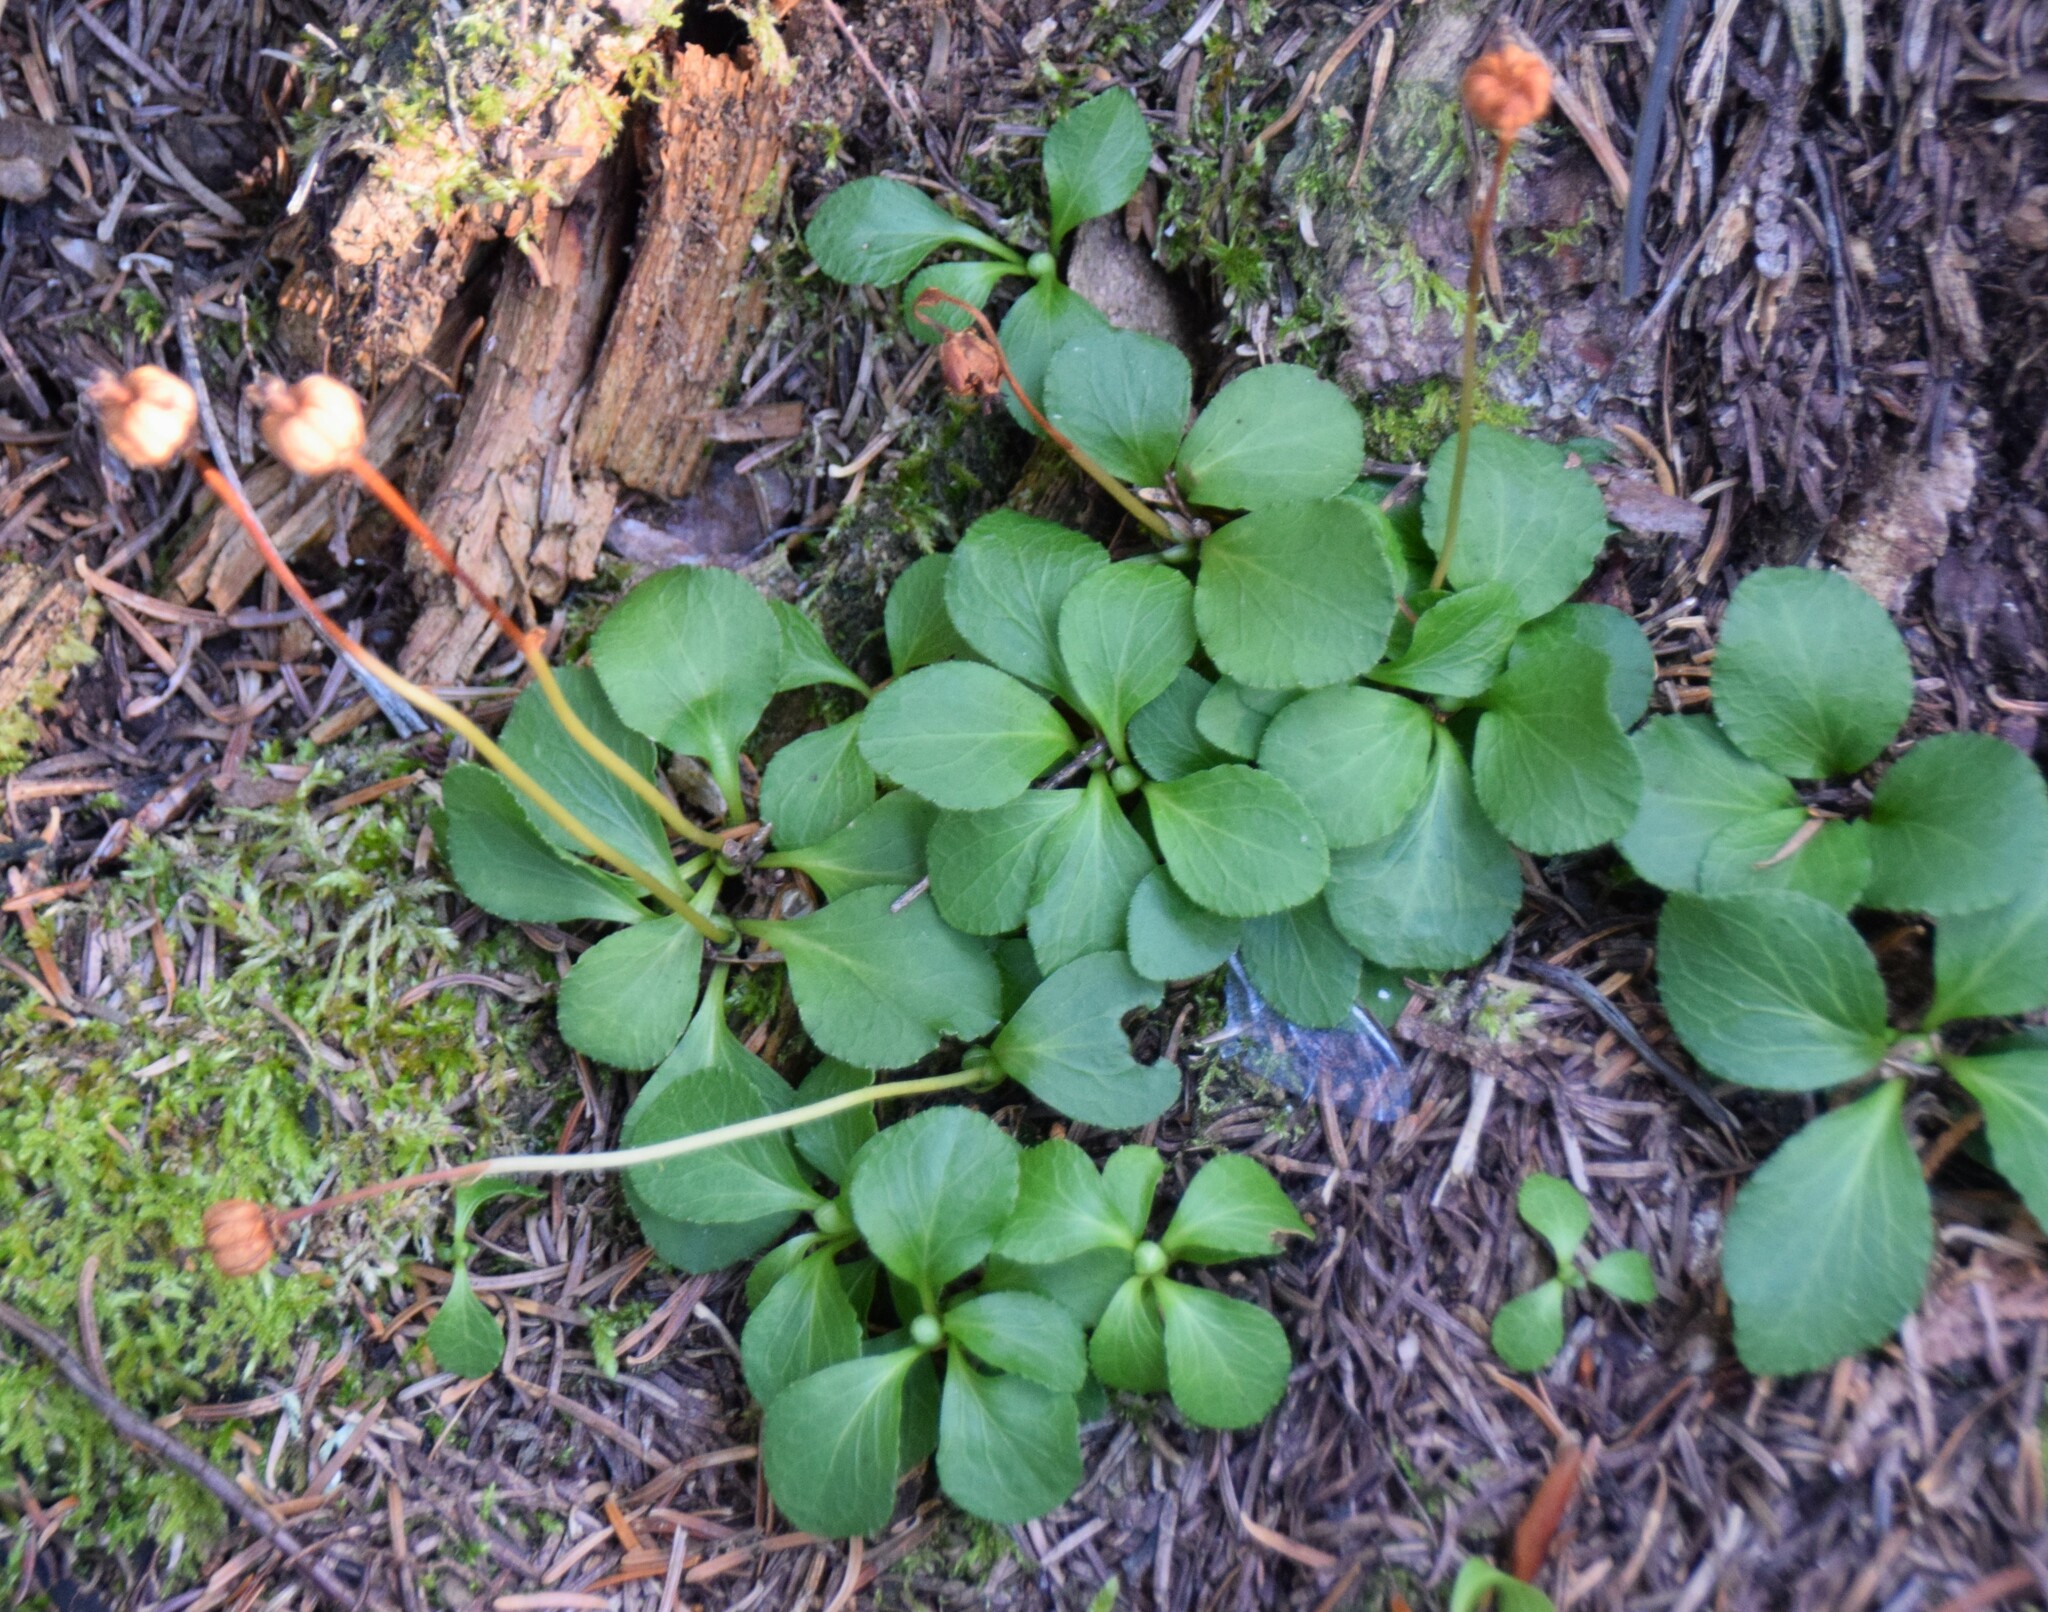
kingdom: Plantae
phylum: Tracheophyta
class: Magnoliopsida
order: Ericales
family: Ericaceae
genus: Moneses
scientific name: Moneses uniflora
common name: One-flowered wintergreen
